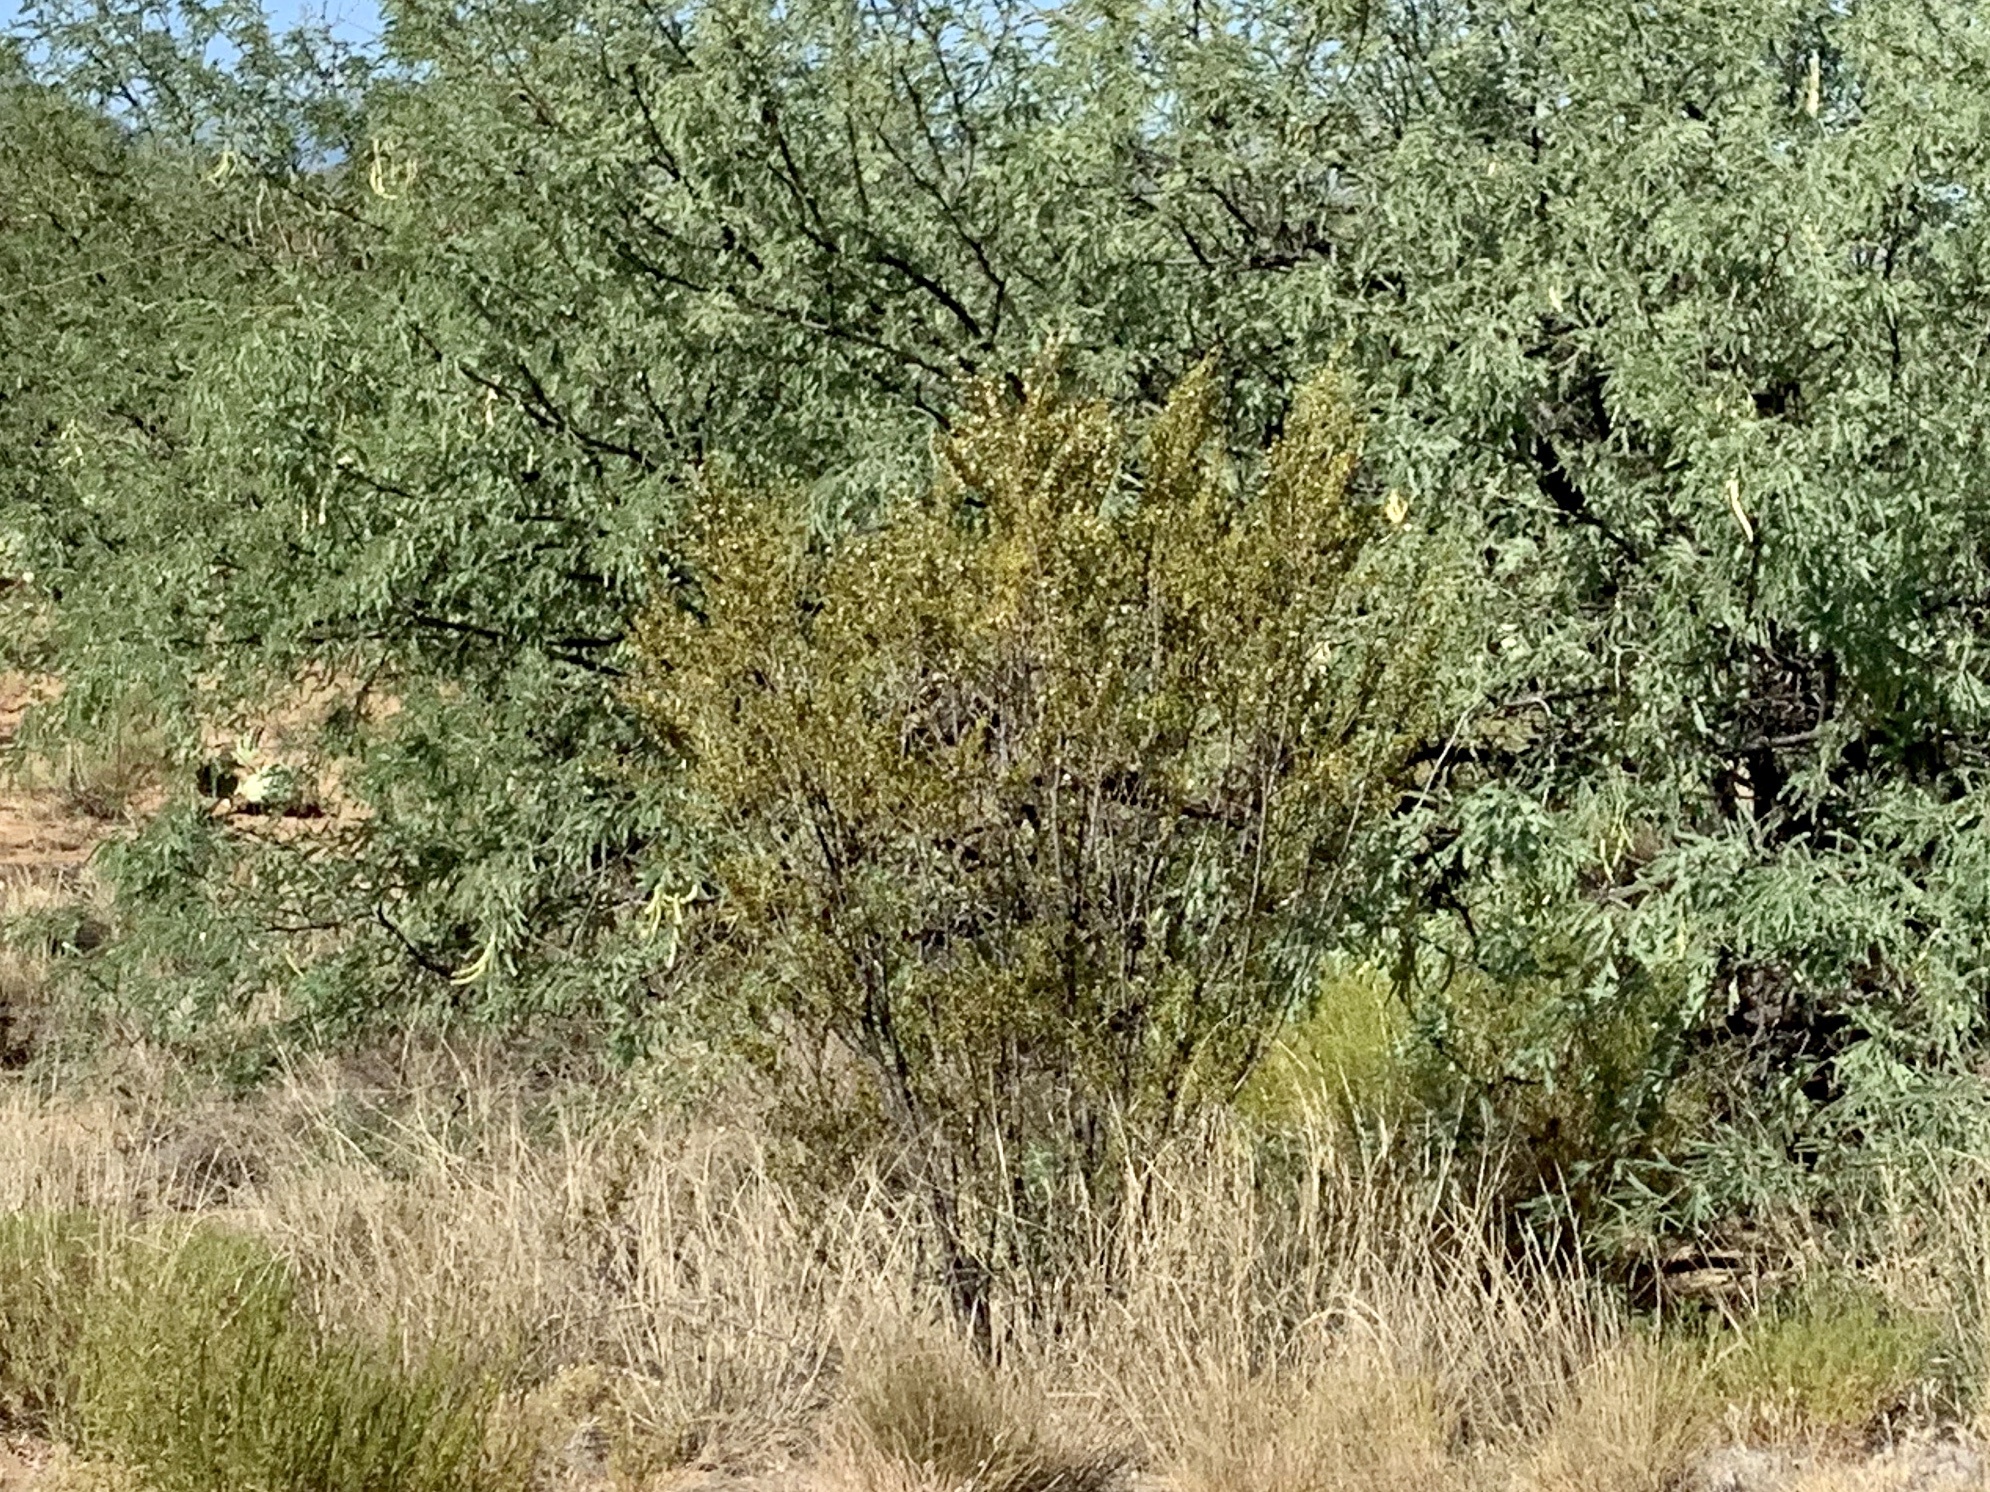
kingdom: Plantae
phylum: Tracheophyta
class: Magnoliopsida
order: Zygophyllales
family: Zygophyllaceae
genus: Larrea
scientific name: Larrea tridentata
